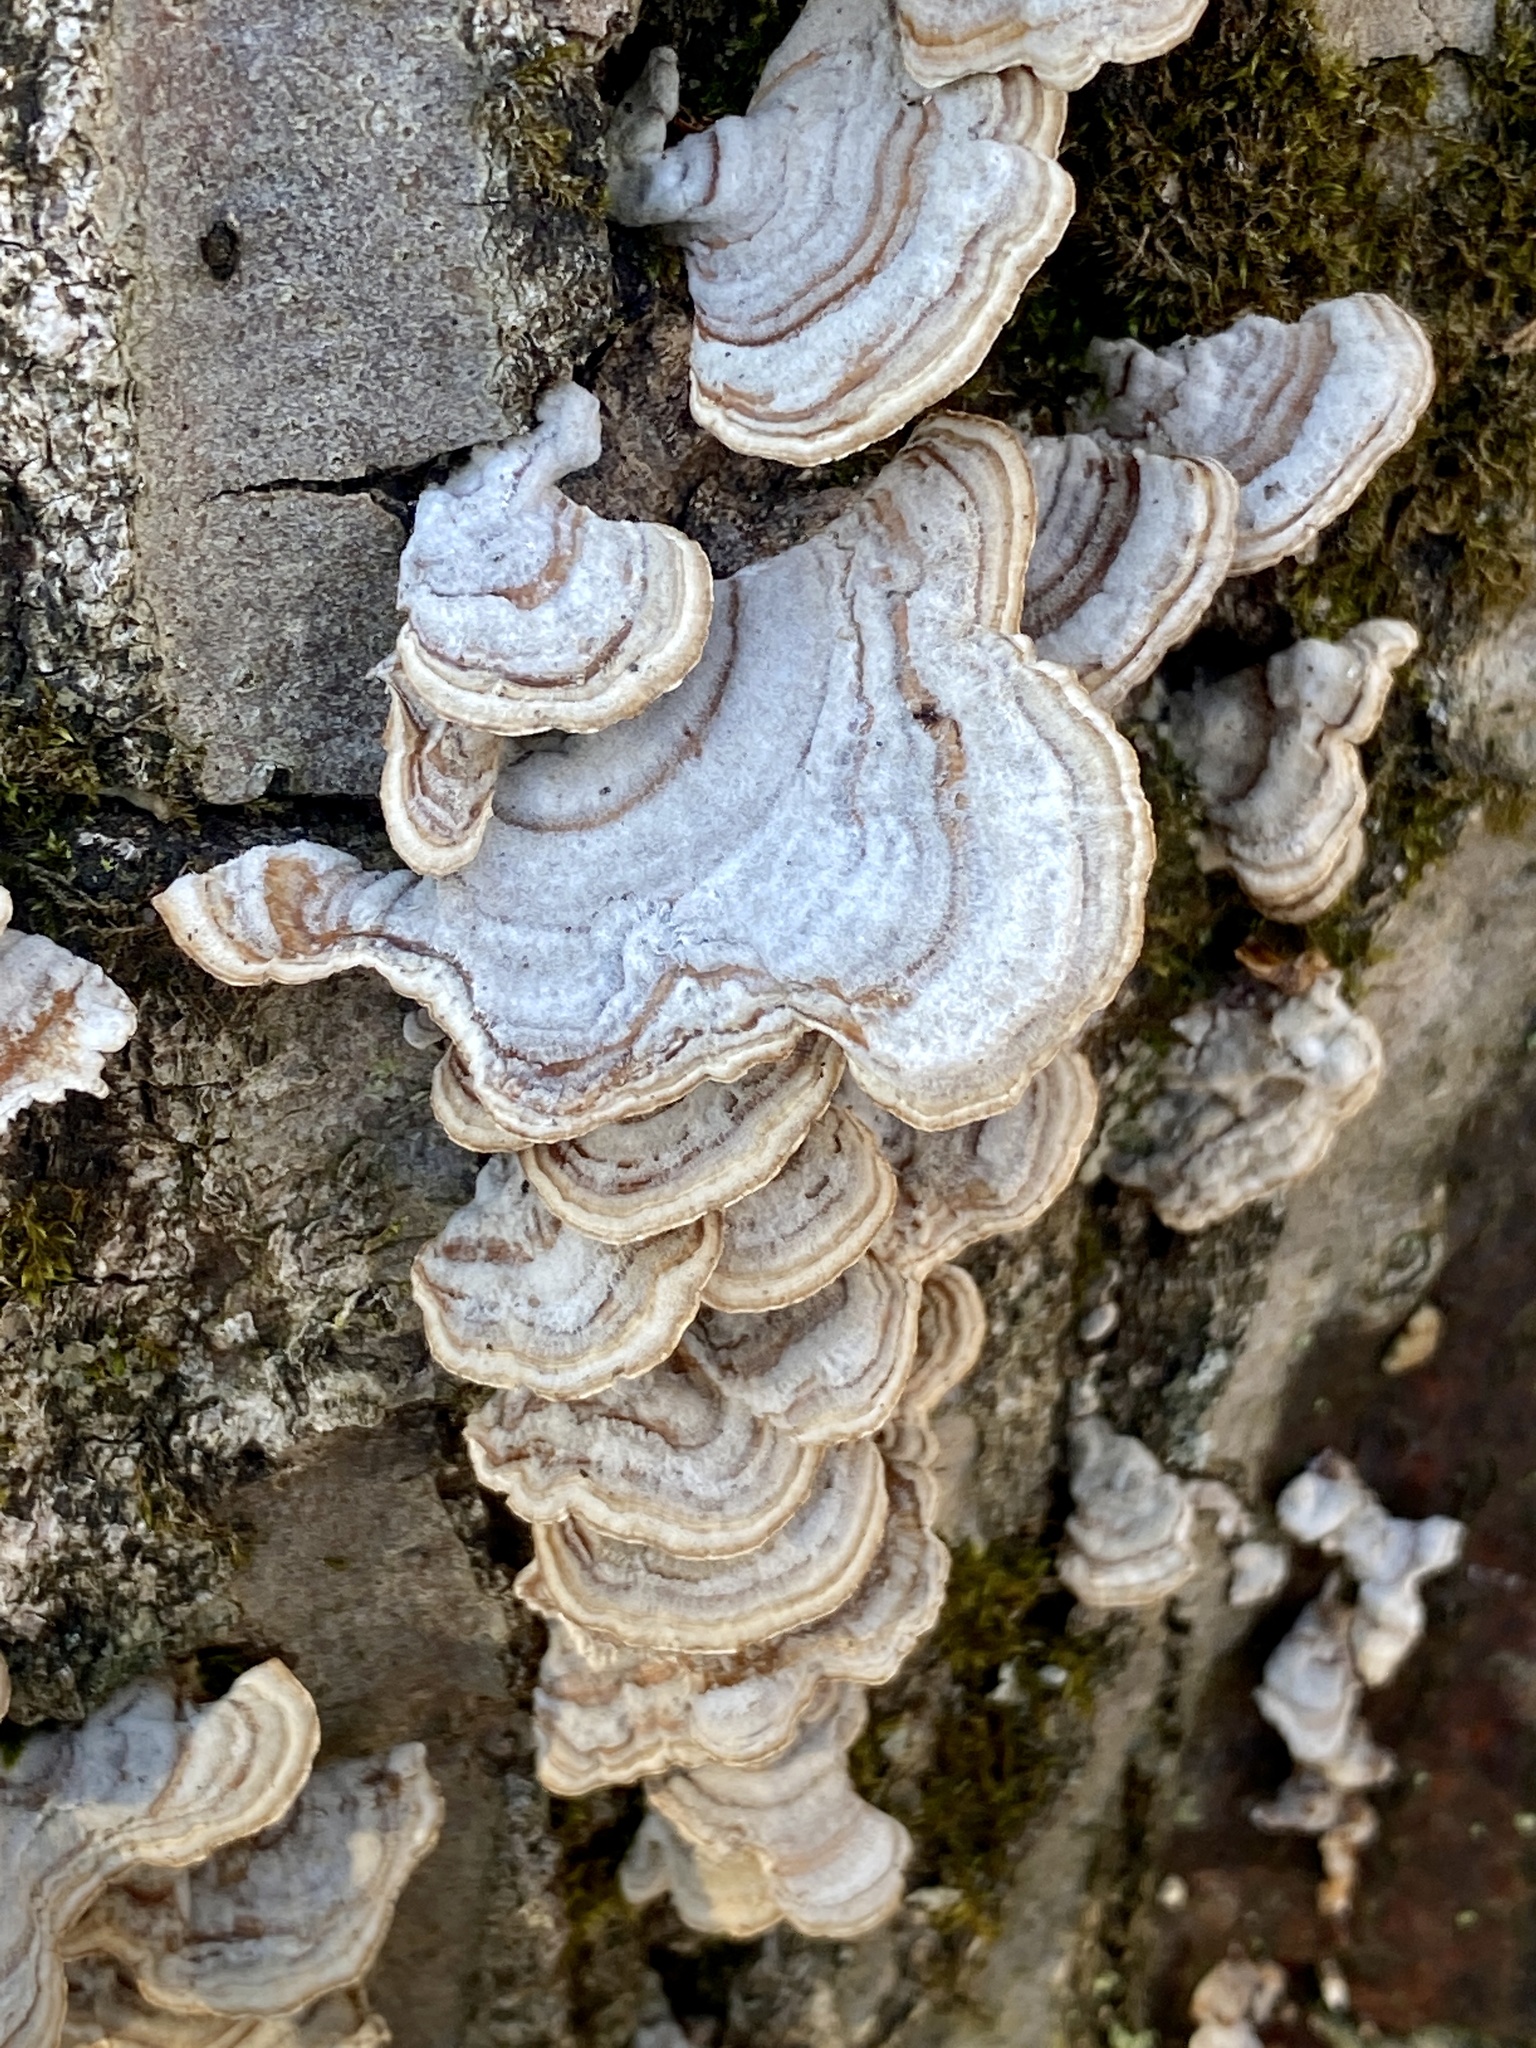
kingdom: Fungi
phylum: Basidiomycota
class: Agaricomycetes
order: Russulales
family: Stereaceae
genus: Stereum
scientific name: Stereum lobatum
